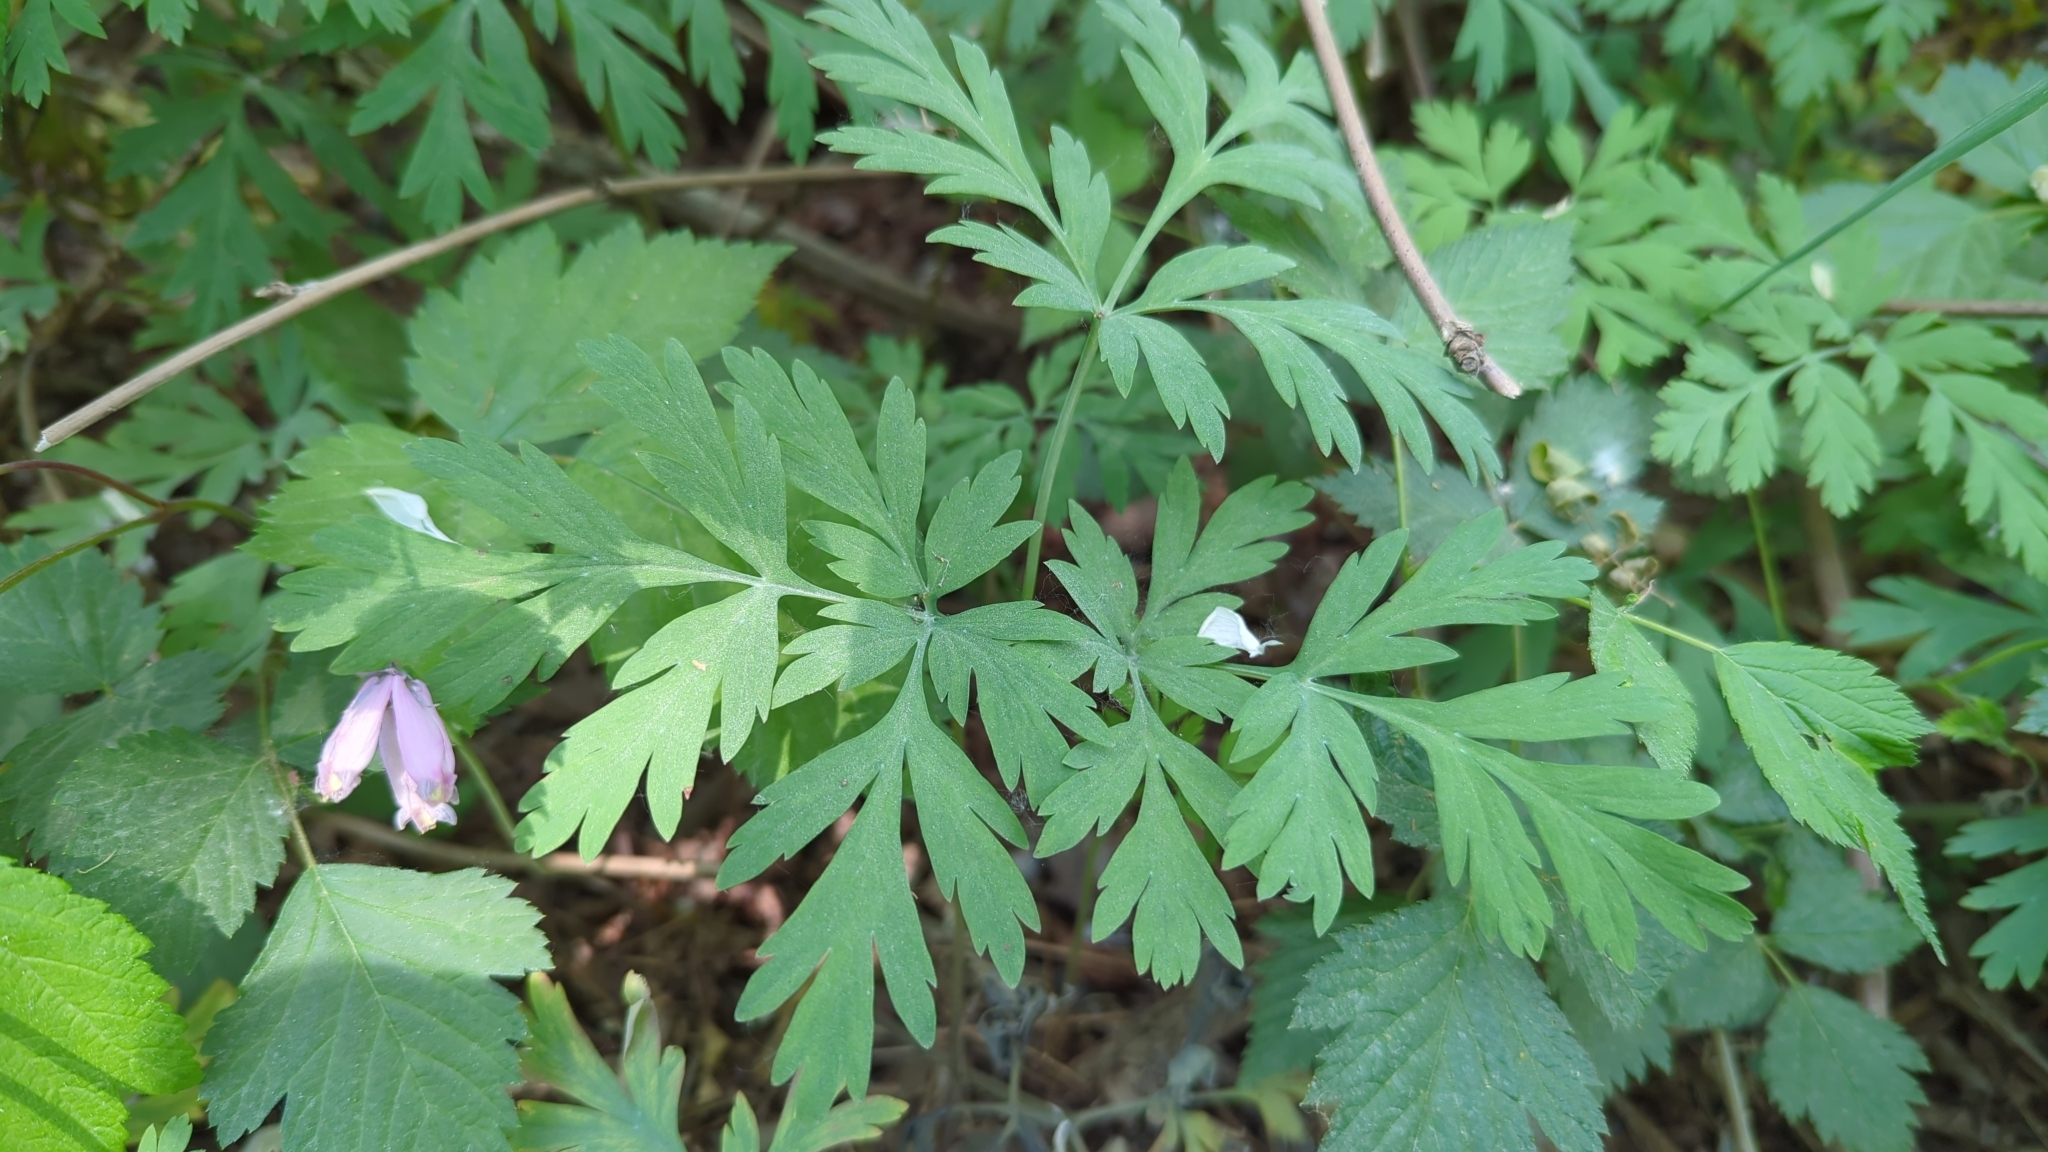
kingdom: Plantae
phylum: Tracheophyta
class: Magnoliopsida
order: Ranunculales
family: Papaveraceae
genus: Dicentra
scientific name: Dicentra formosa
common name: Bleeding-heart
